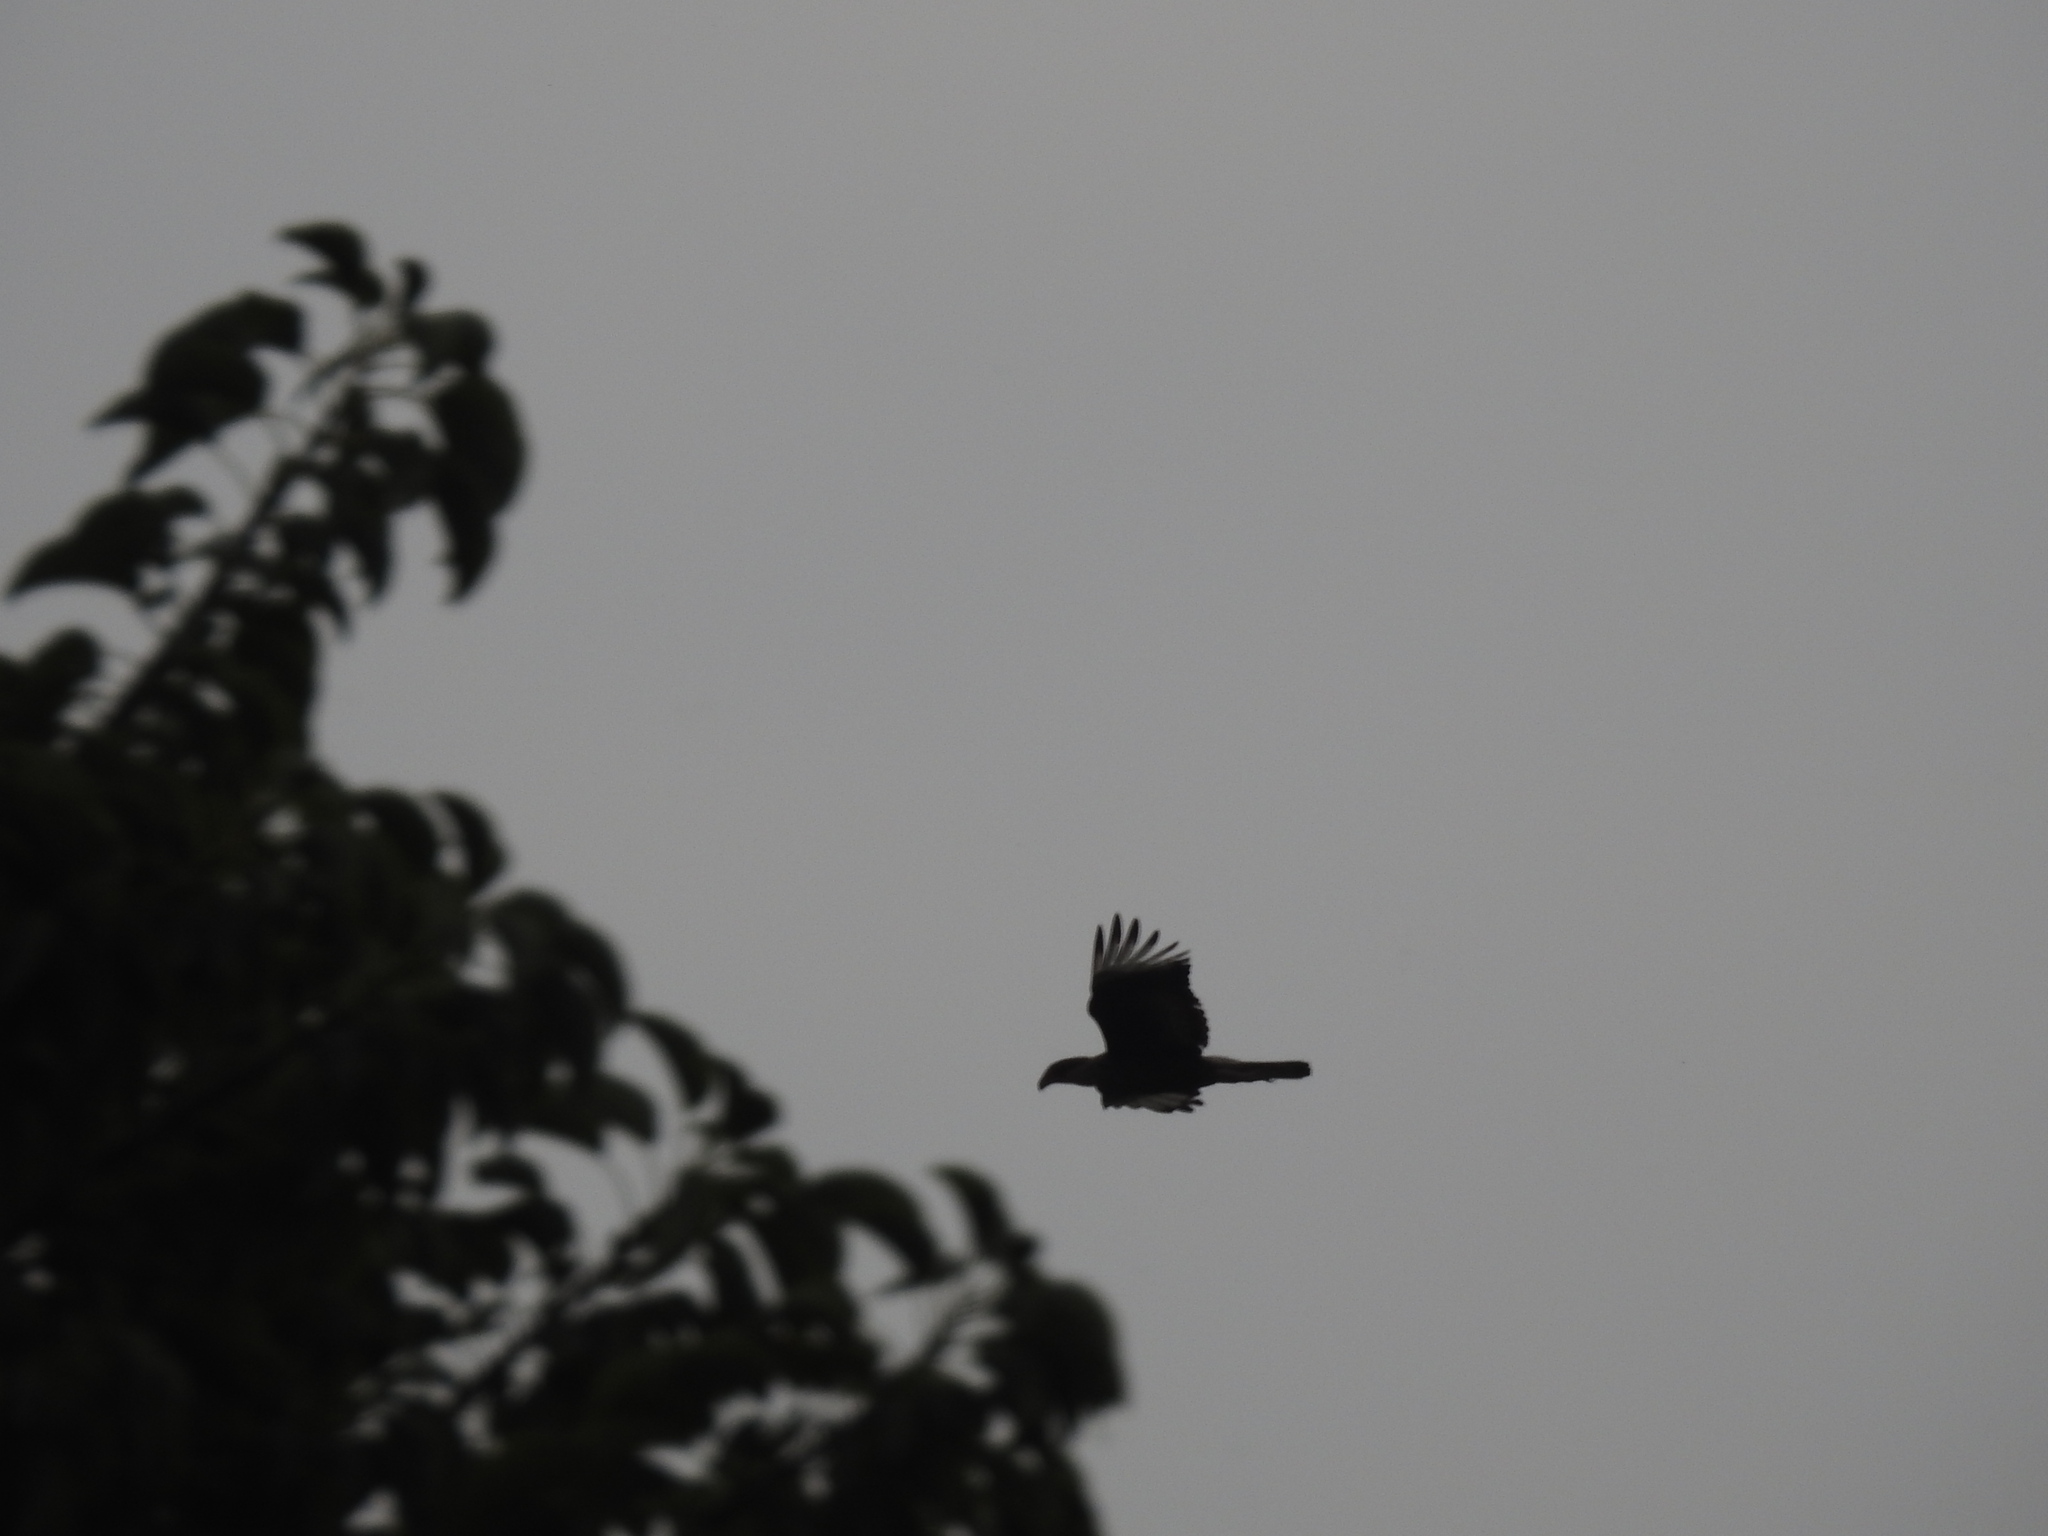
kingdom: Animalia
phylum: Chordata
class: Aves
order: Falconiformes
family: Falconidae
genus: Caracara
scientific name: Caracara plancus
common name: Southern caracara
